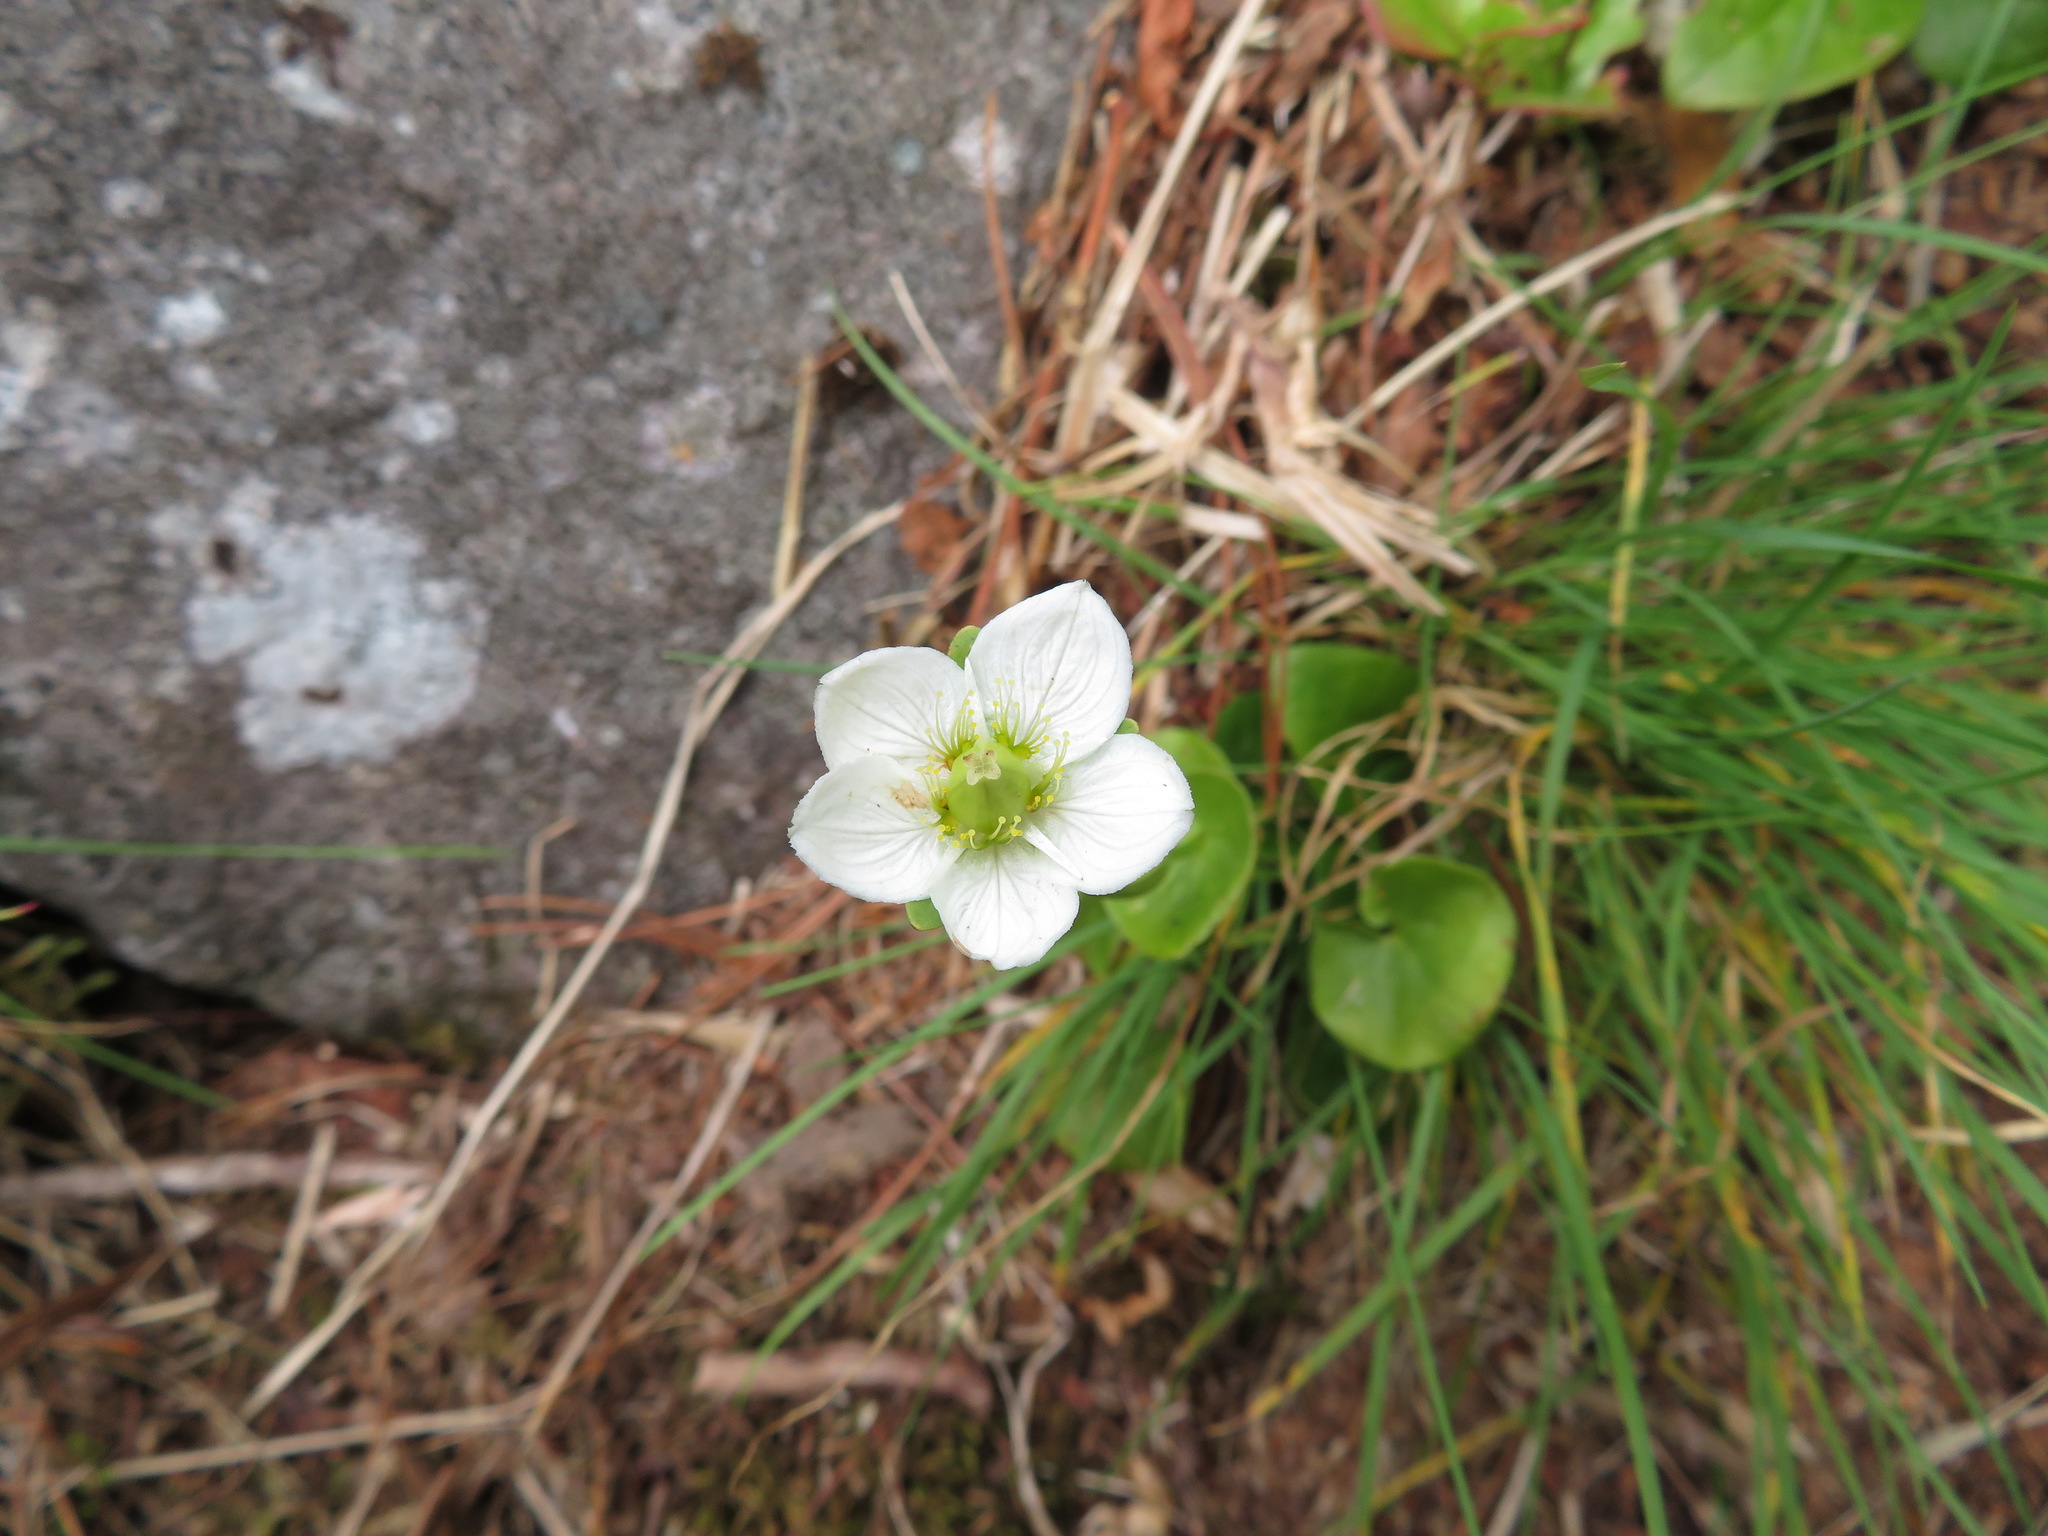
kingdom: Plantae
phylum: Tracheophyta
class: Magnoliopsida
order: Celastrales
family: Parnassiaceae
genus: Parnassia
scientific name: Parnassia palustris
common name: Grass-of-parnassus
